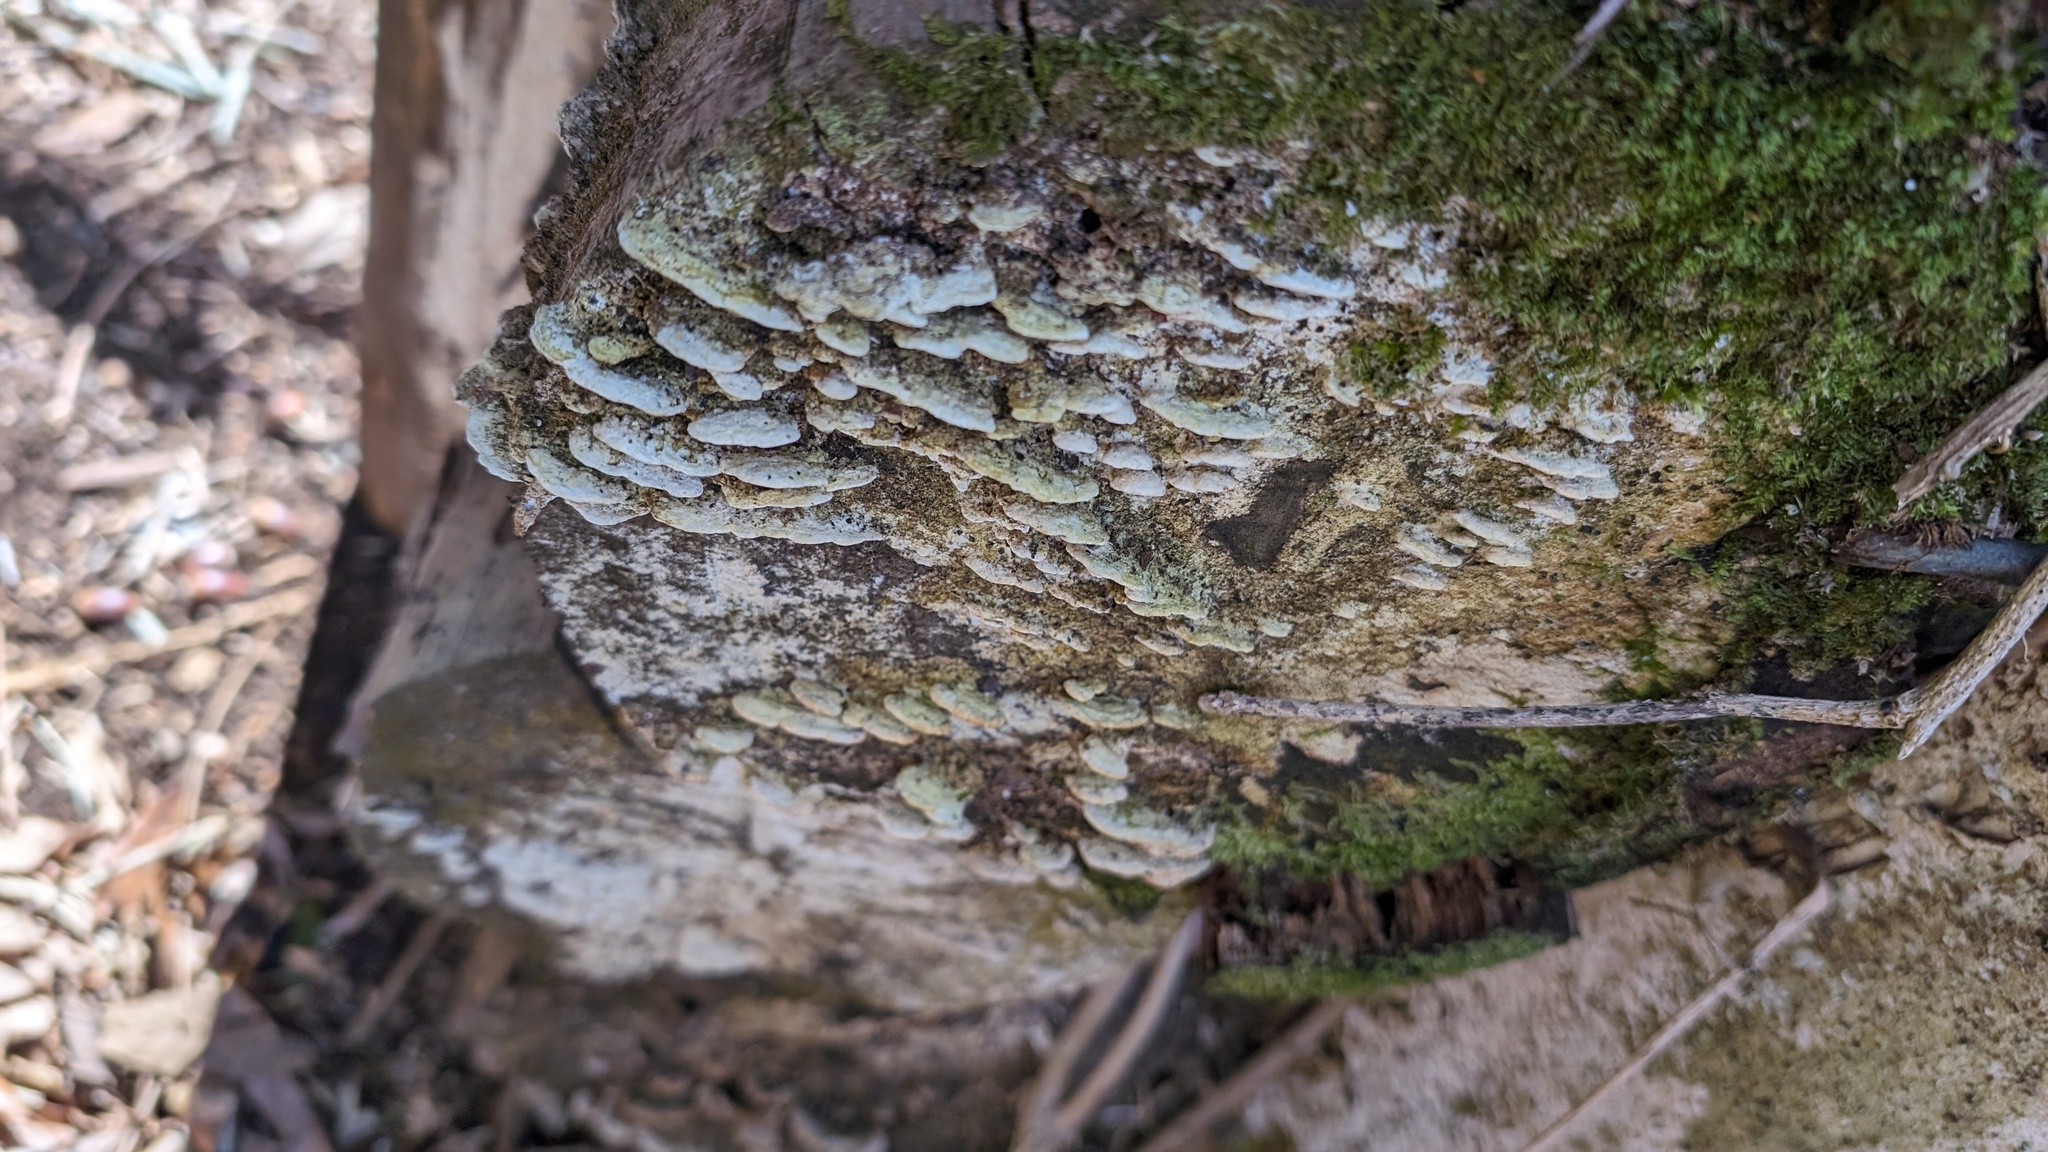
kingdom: Fungi
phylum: Basidiomycota
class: Agaricomycetes
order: Hymenochaetales
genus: Cyanotrama
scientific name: Cyanotrama
